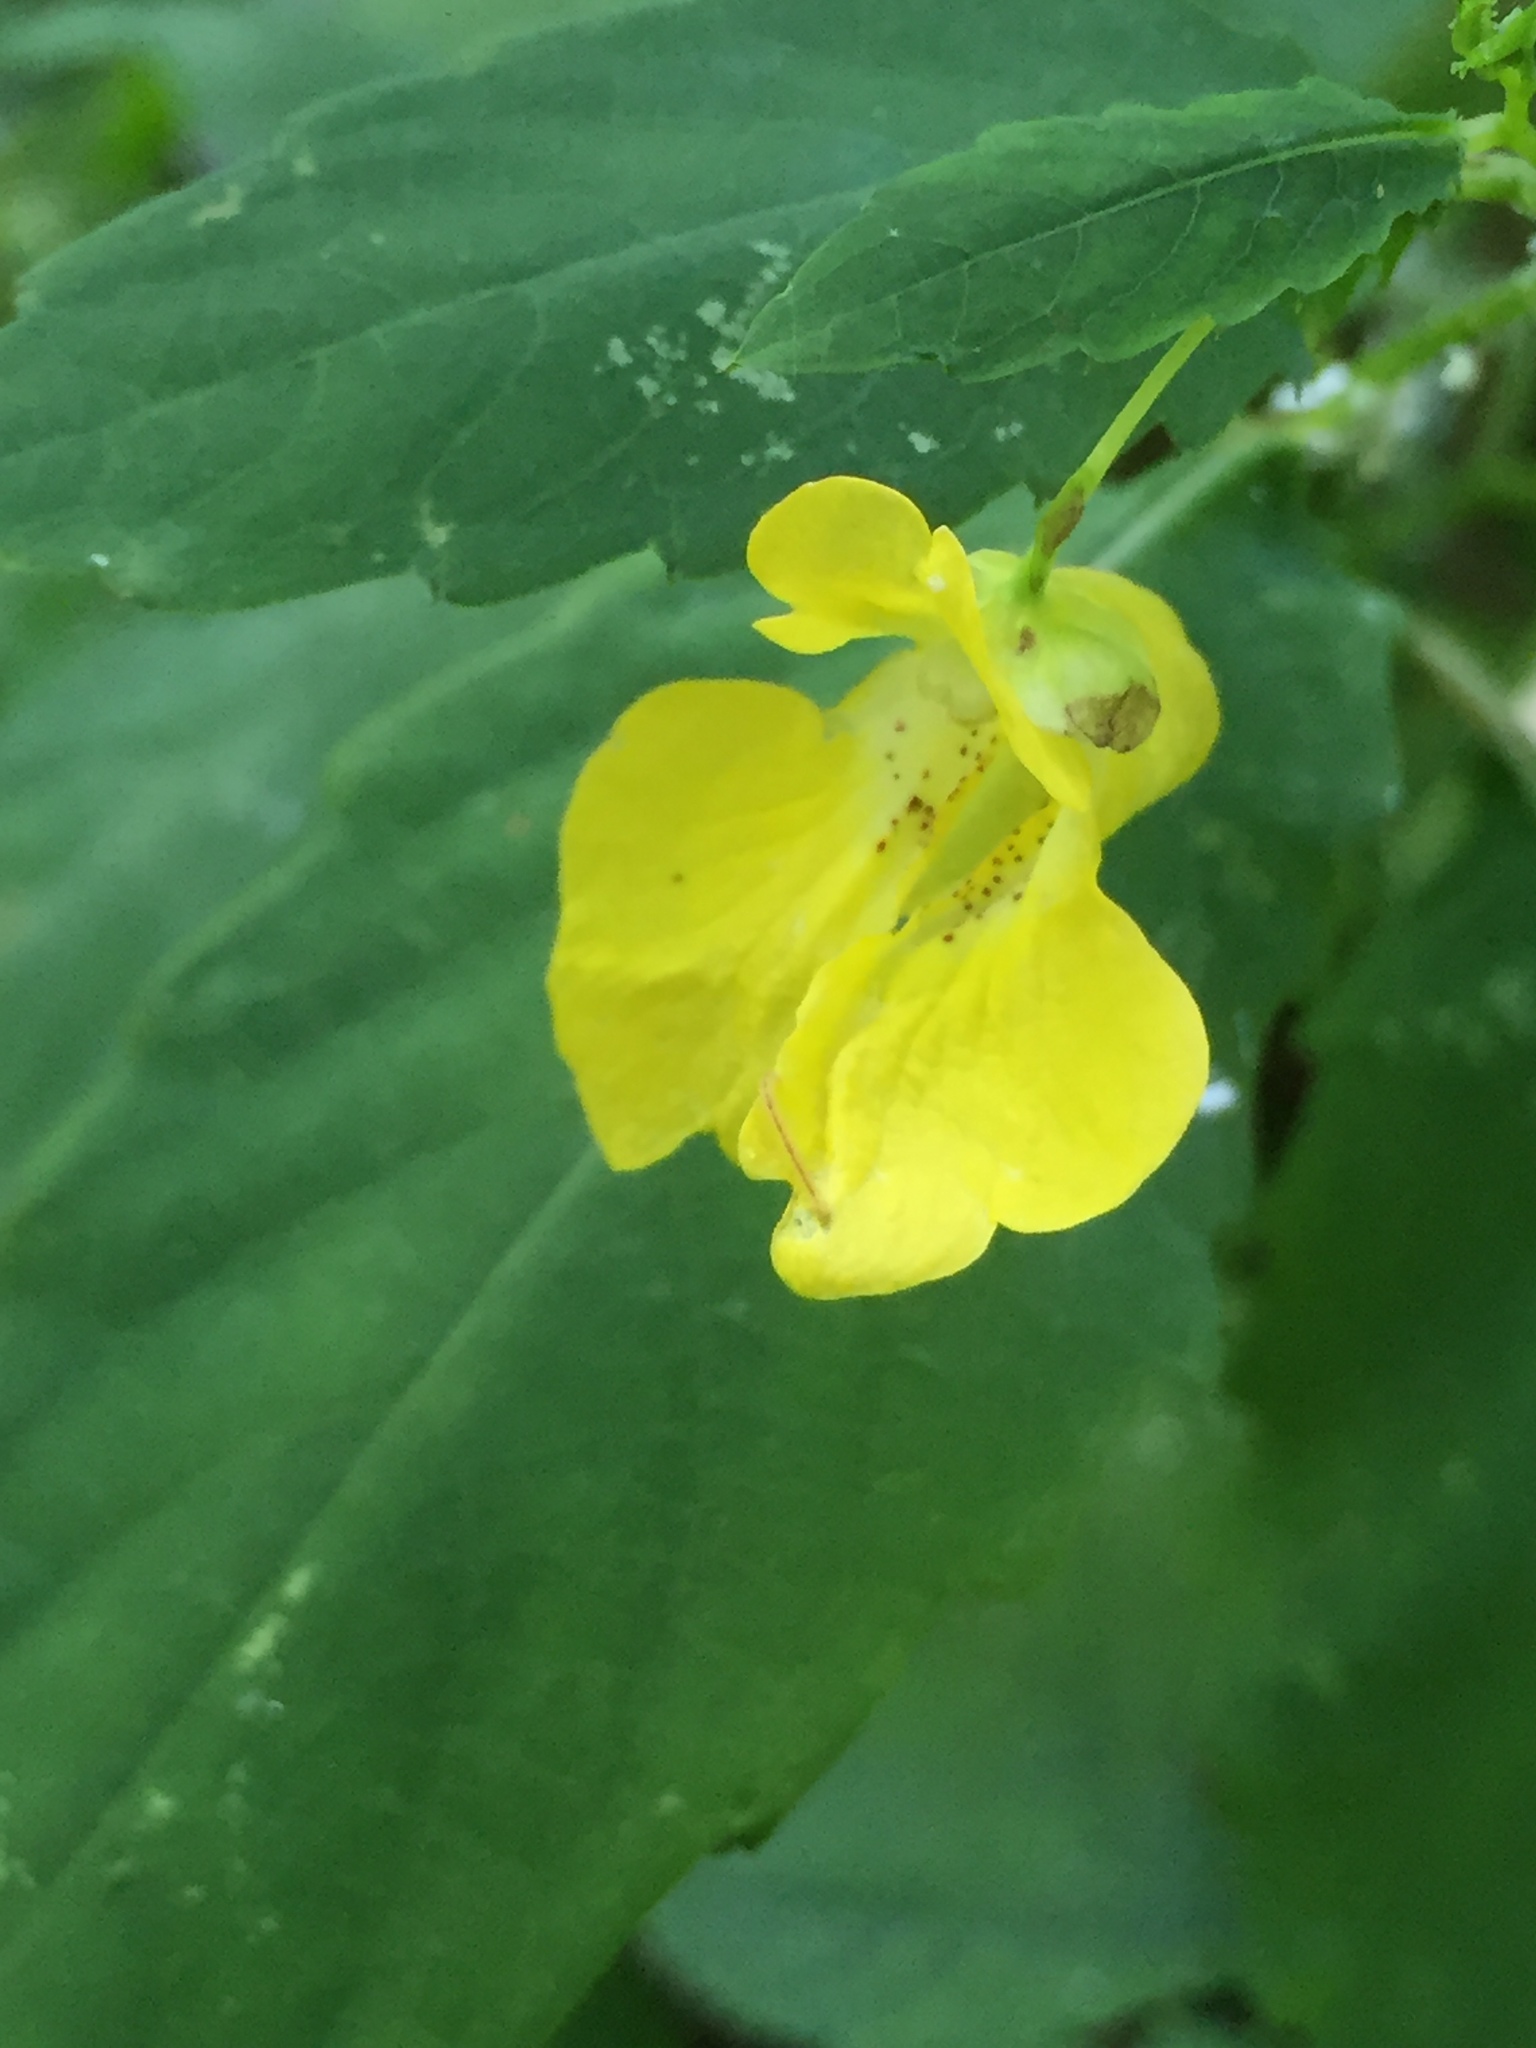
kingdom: Plantae
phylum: Tracheophyta
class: Magnoliopsida
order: Ericales
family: Balsaminaceae
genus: Impatiens
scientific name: Impatiens pallida
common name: Pale snapweed
